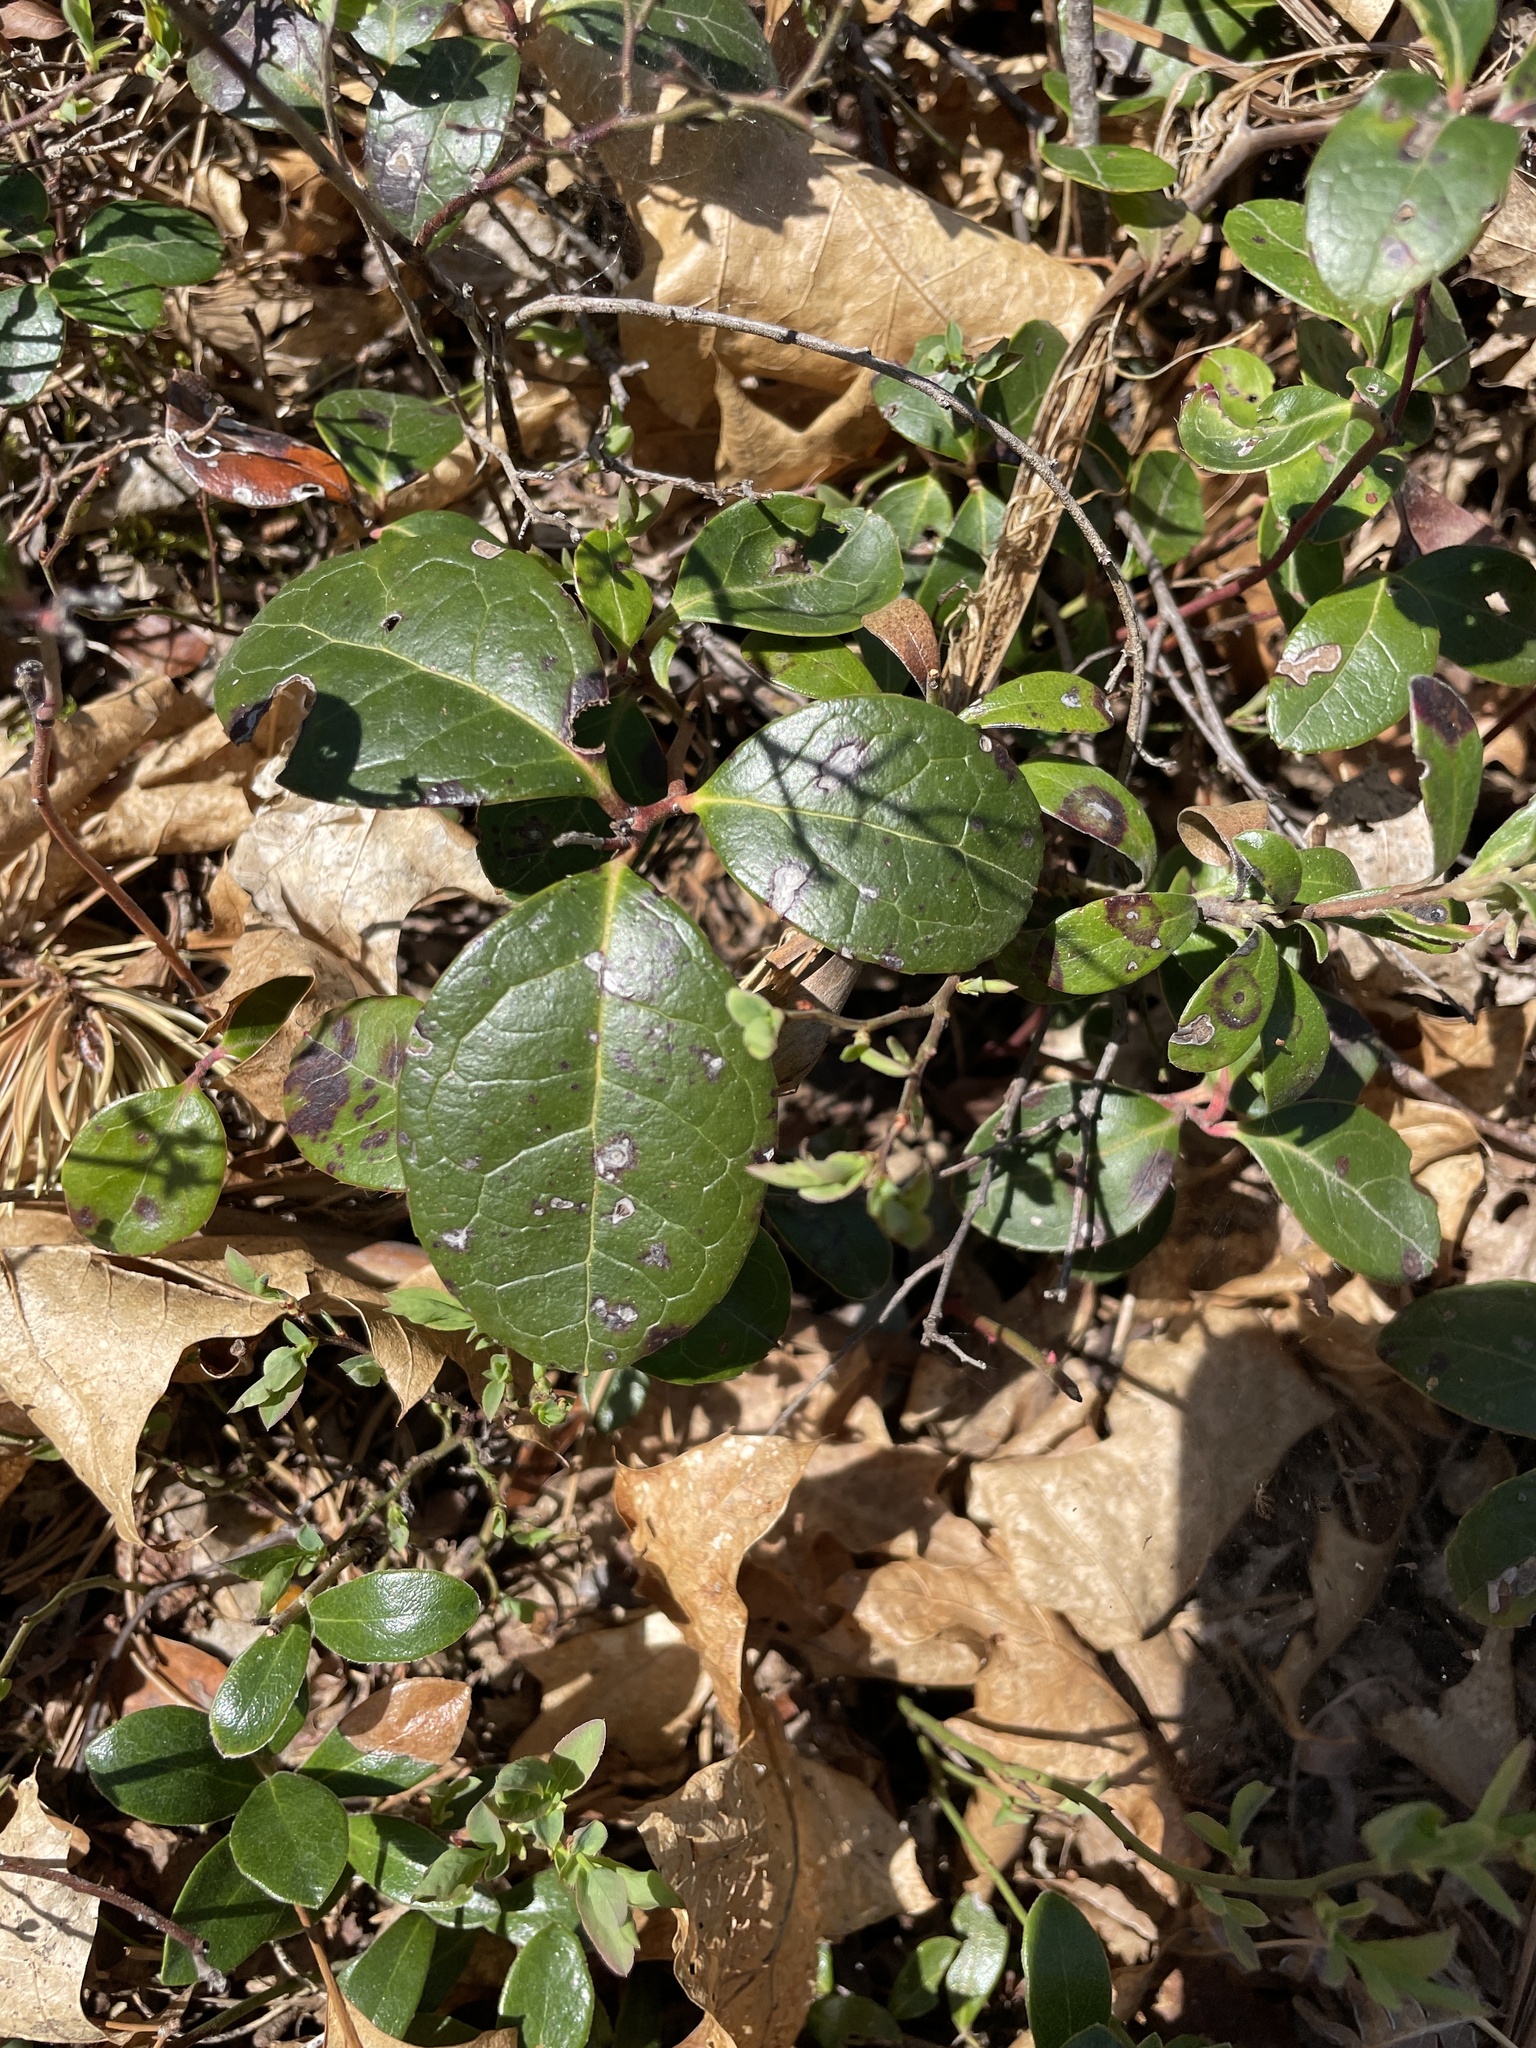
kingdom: Plantae
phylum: Tracheophyta
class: Magnoliopsida
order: Ericales
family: Ericaceae
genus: Gaultheria
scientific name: Gaultheria procumbens
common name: Checkerberry
